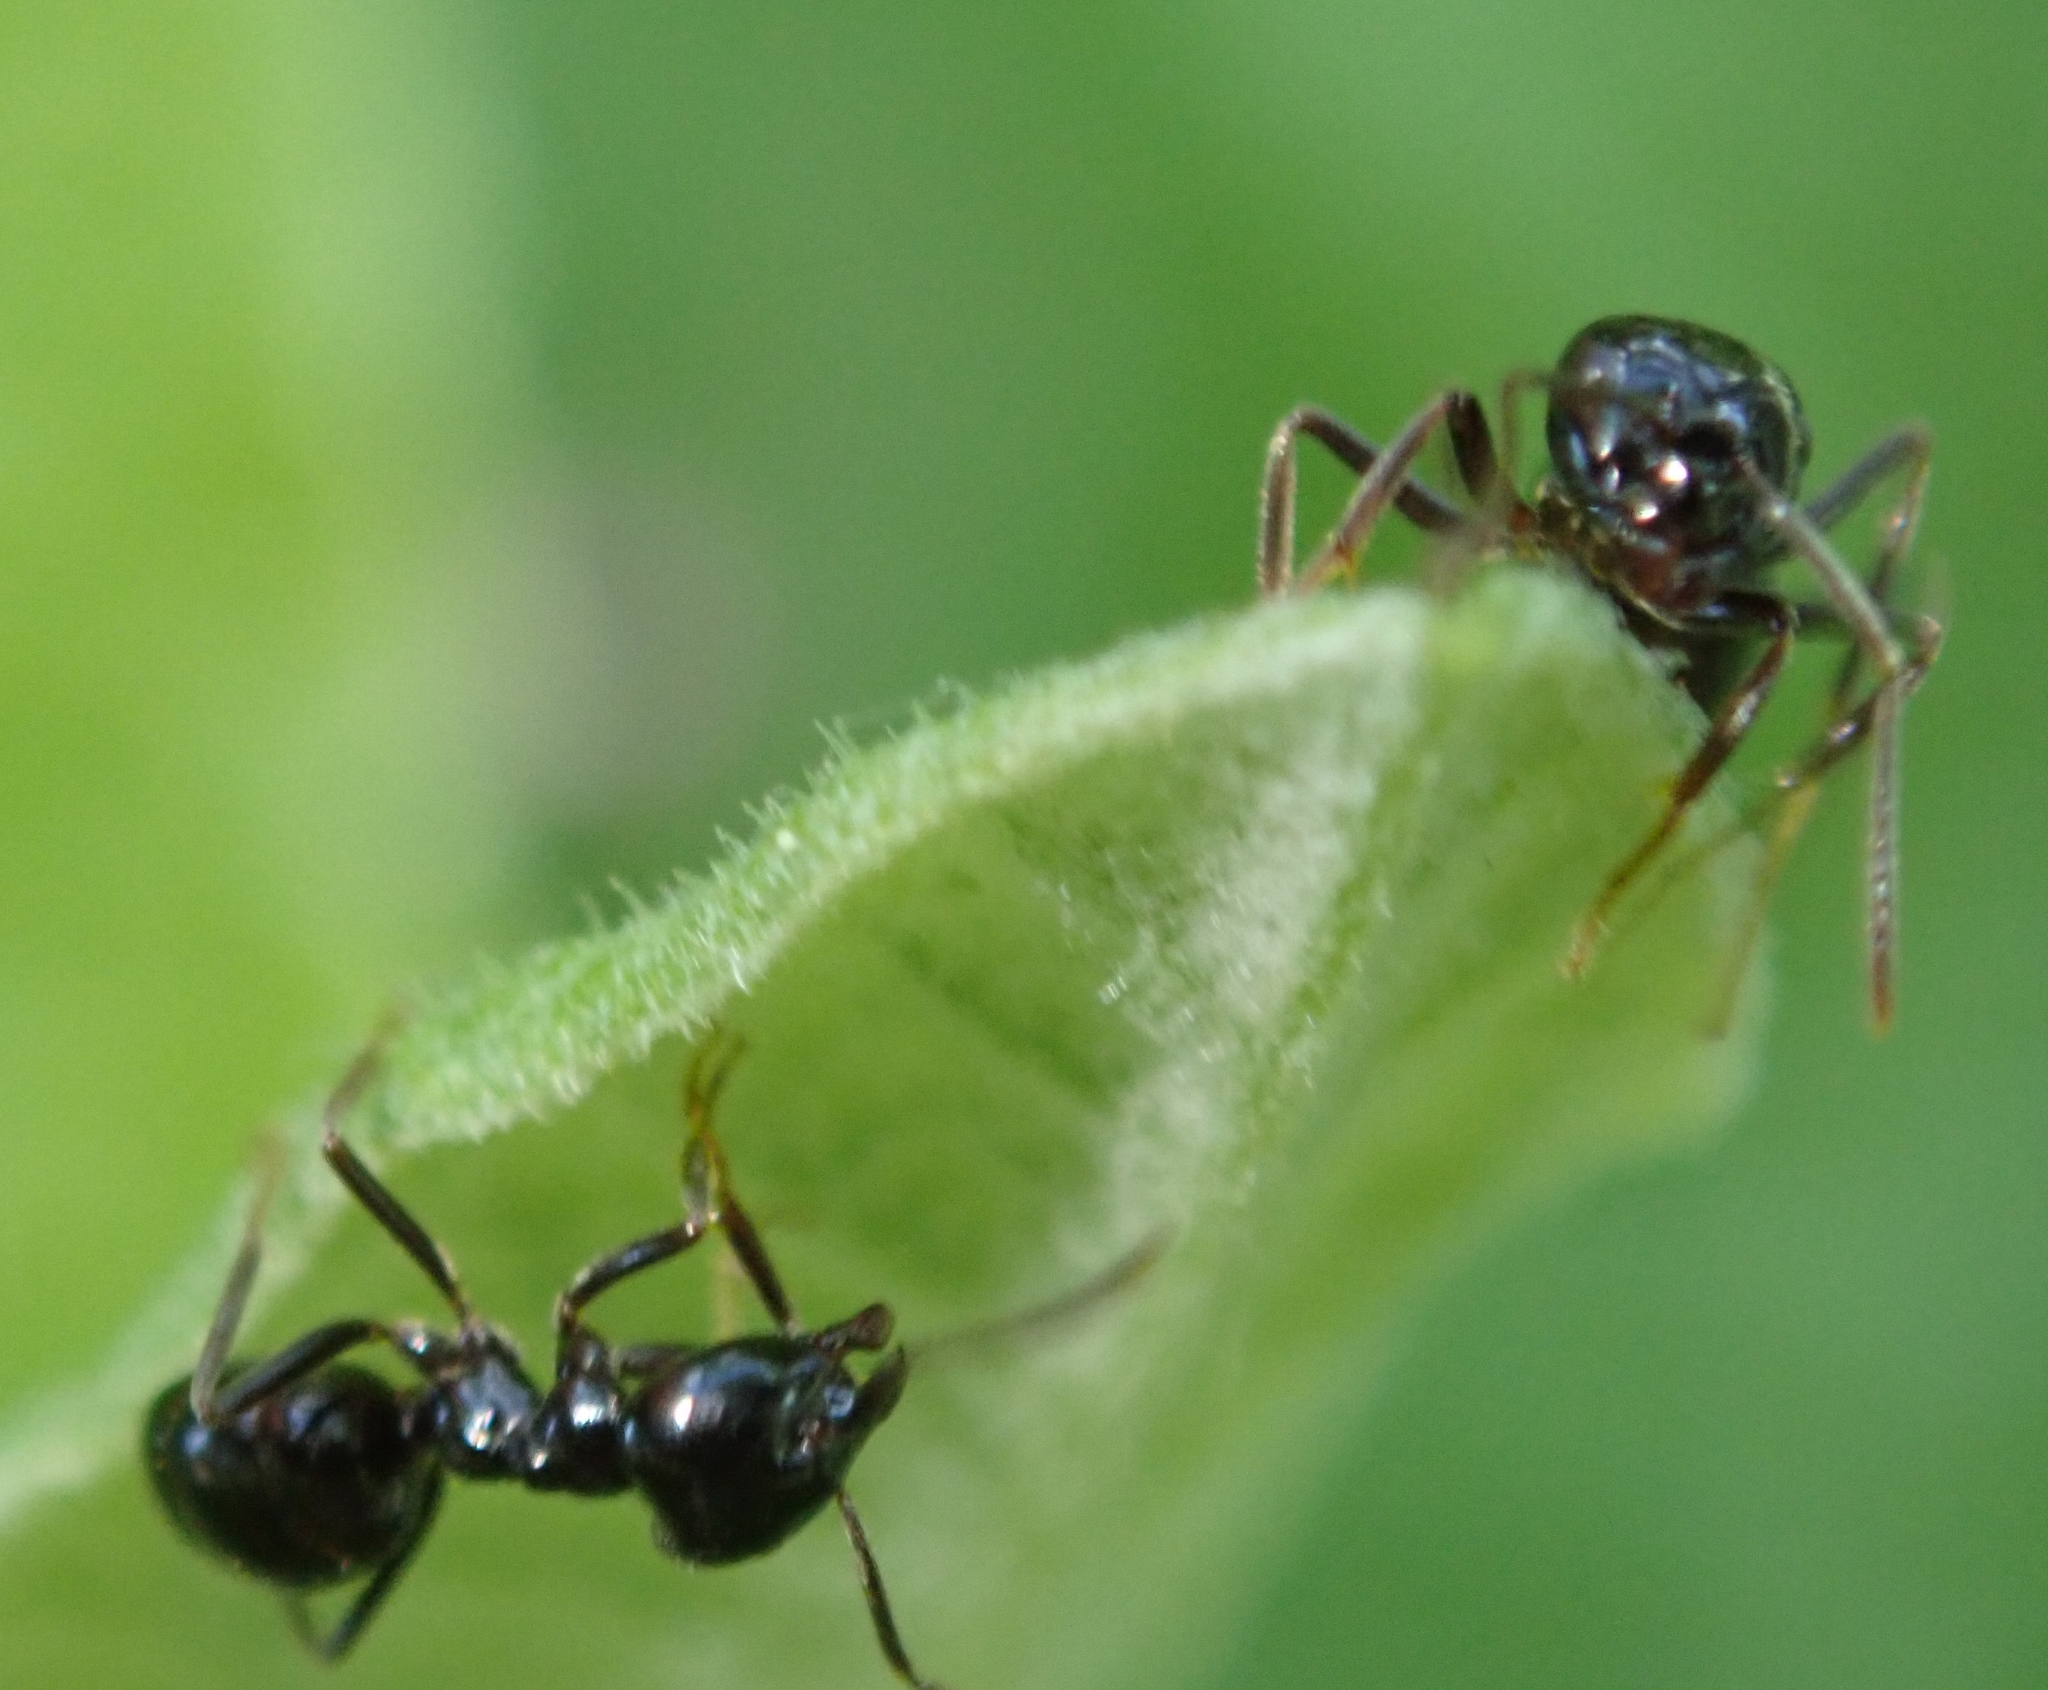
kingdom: Animalia
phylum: Arthropoda
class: Insecta
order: Hymenoptera
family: Formicidae
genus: Lasius
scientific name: Lasius fuliginosus
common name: Jet ant
